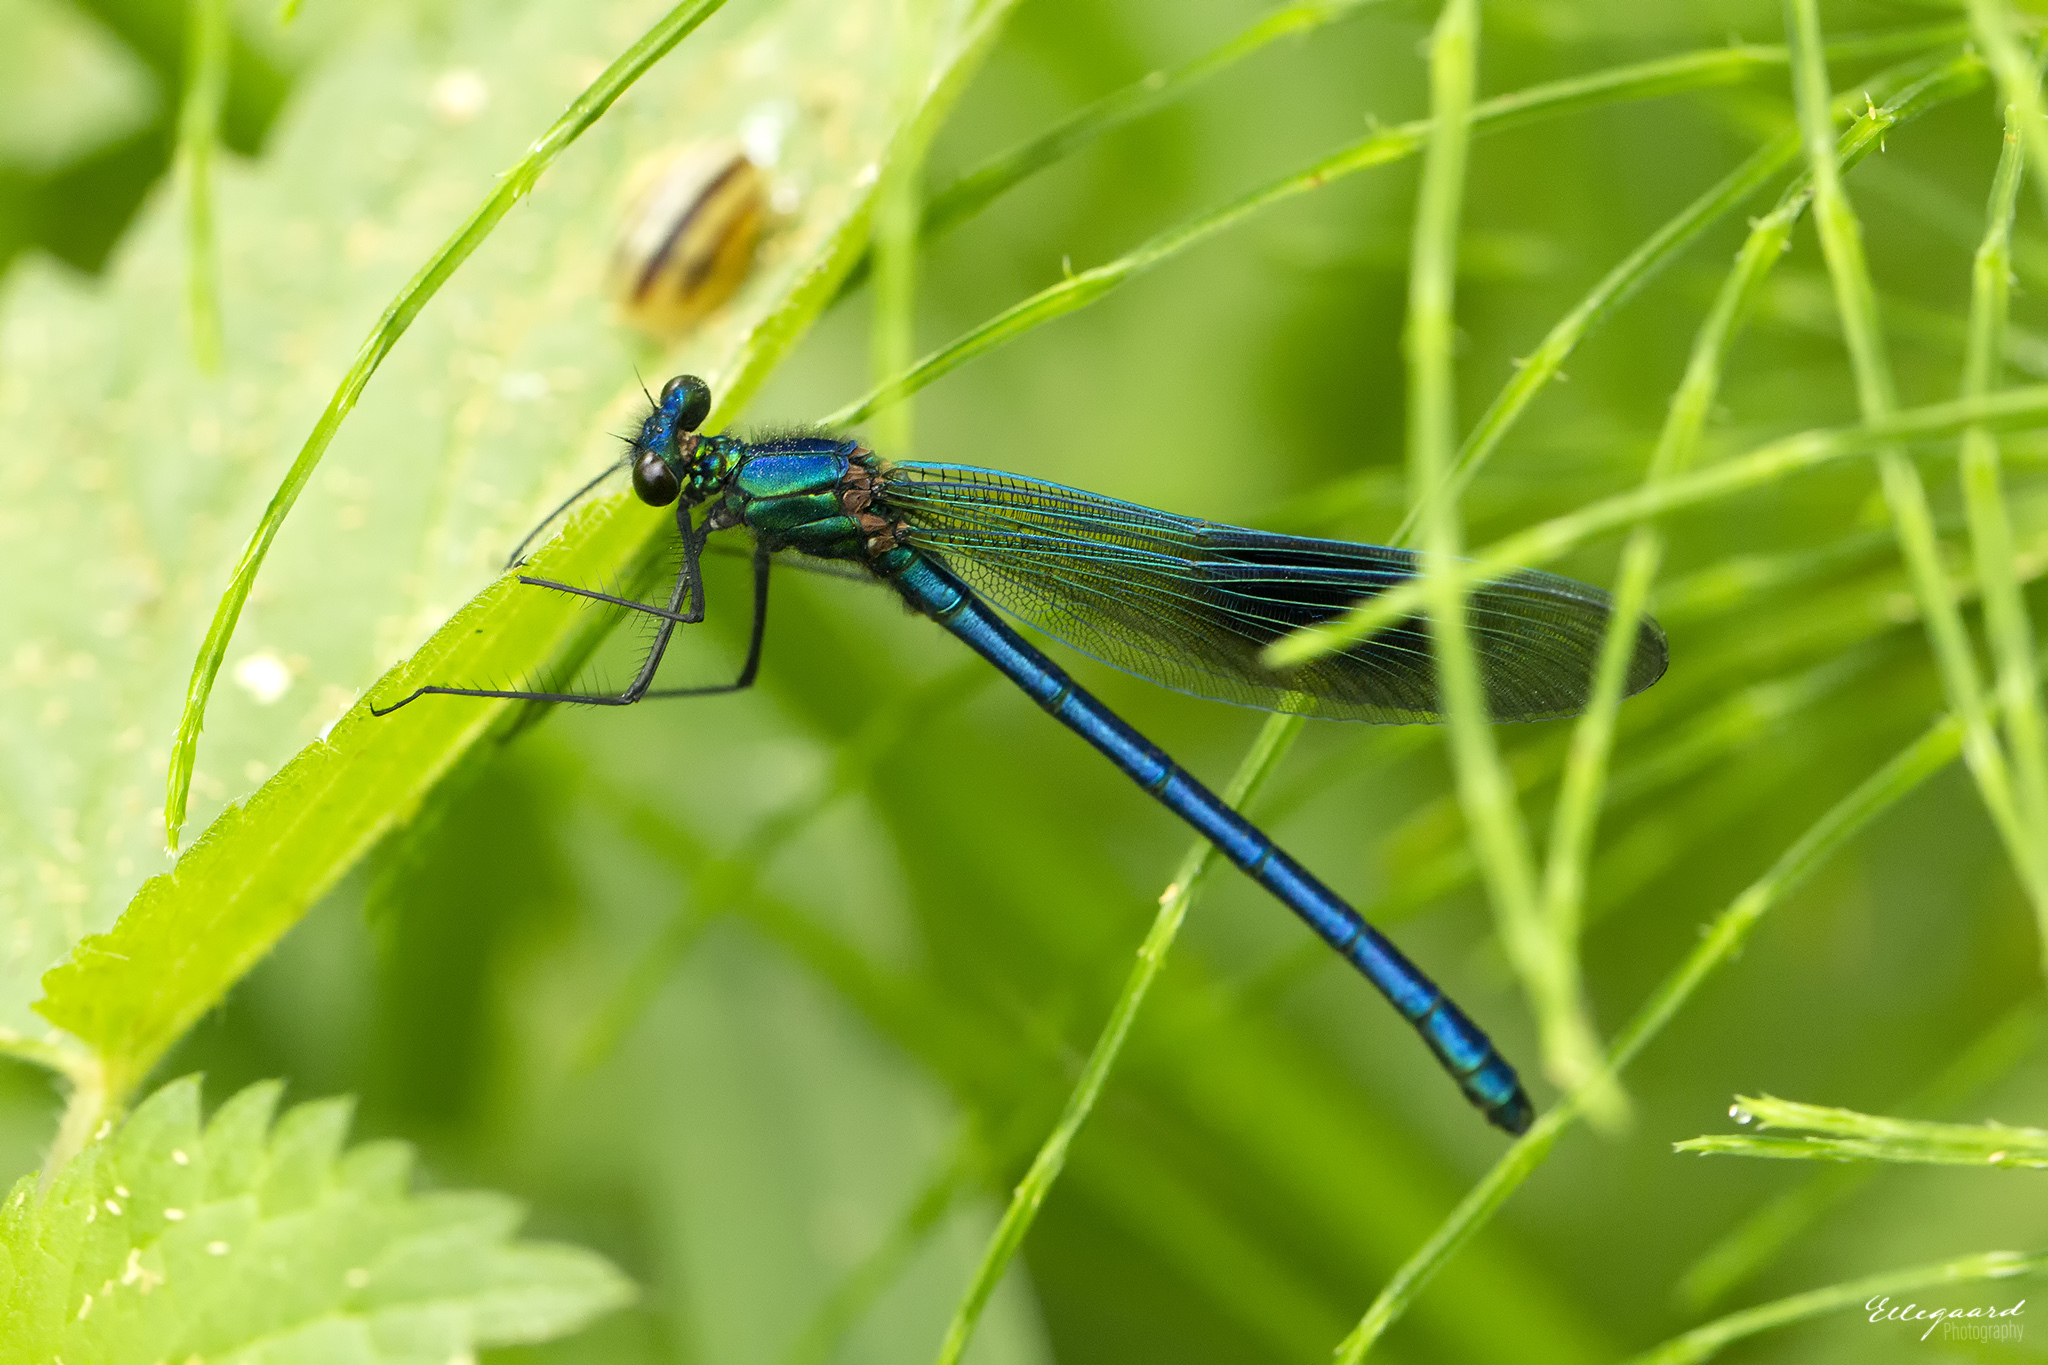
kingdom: Animalia
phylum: Arthropoda
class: Insecta
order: Odonata
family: Calopterygidae
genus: Calopteryx
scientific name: Calopteryx splendens
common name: Banded demoiselle
